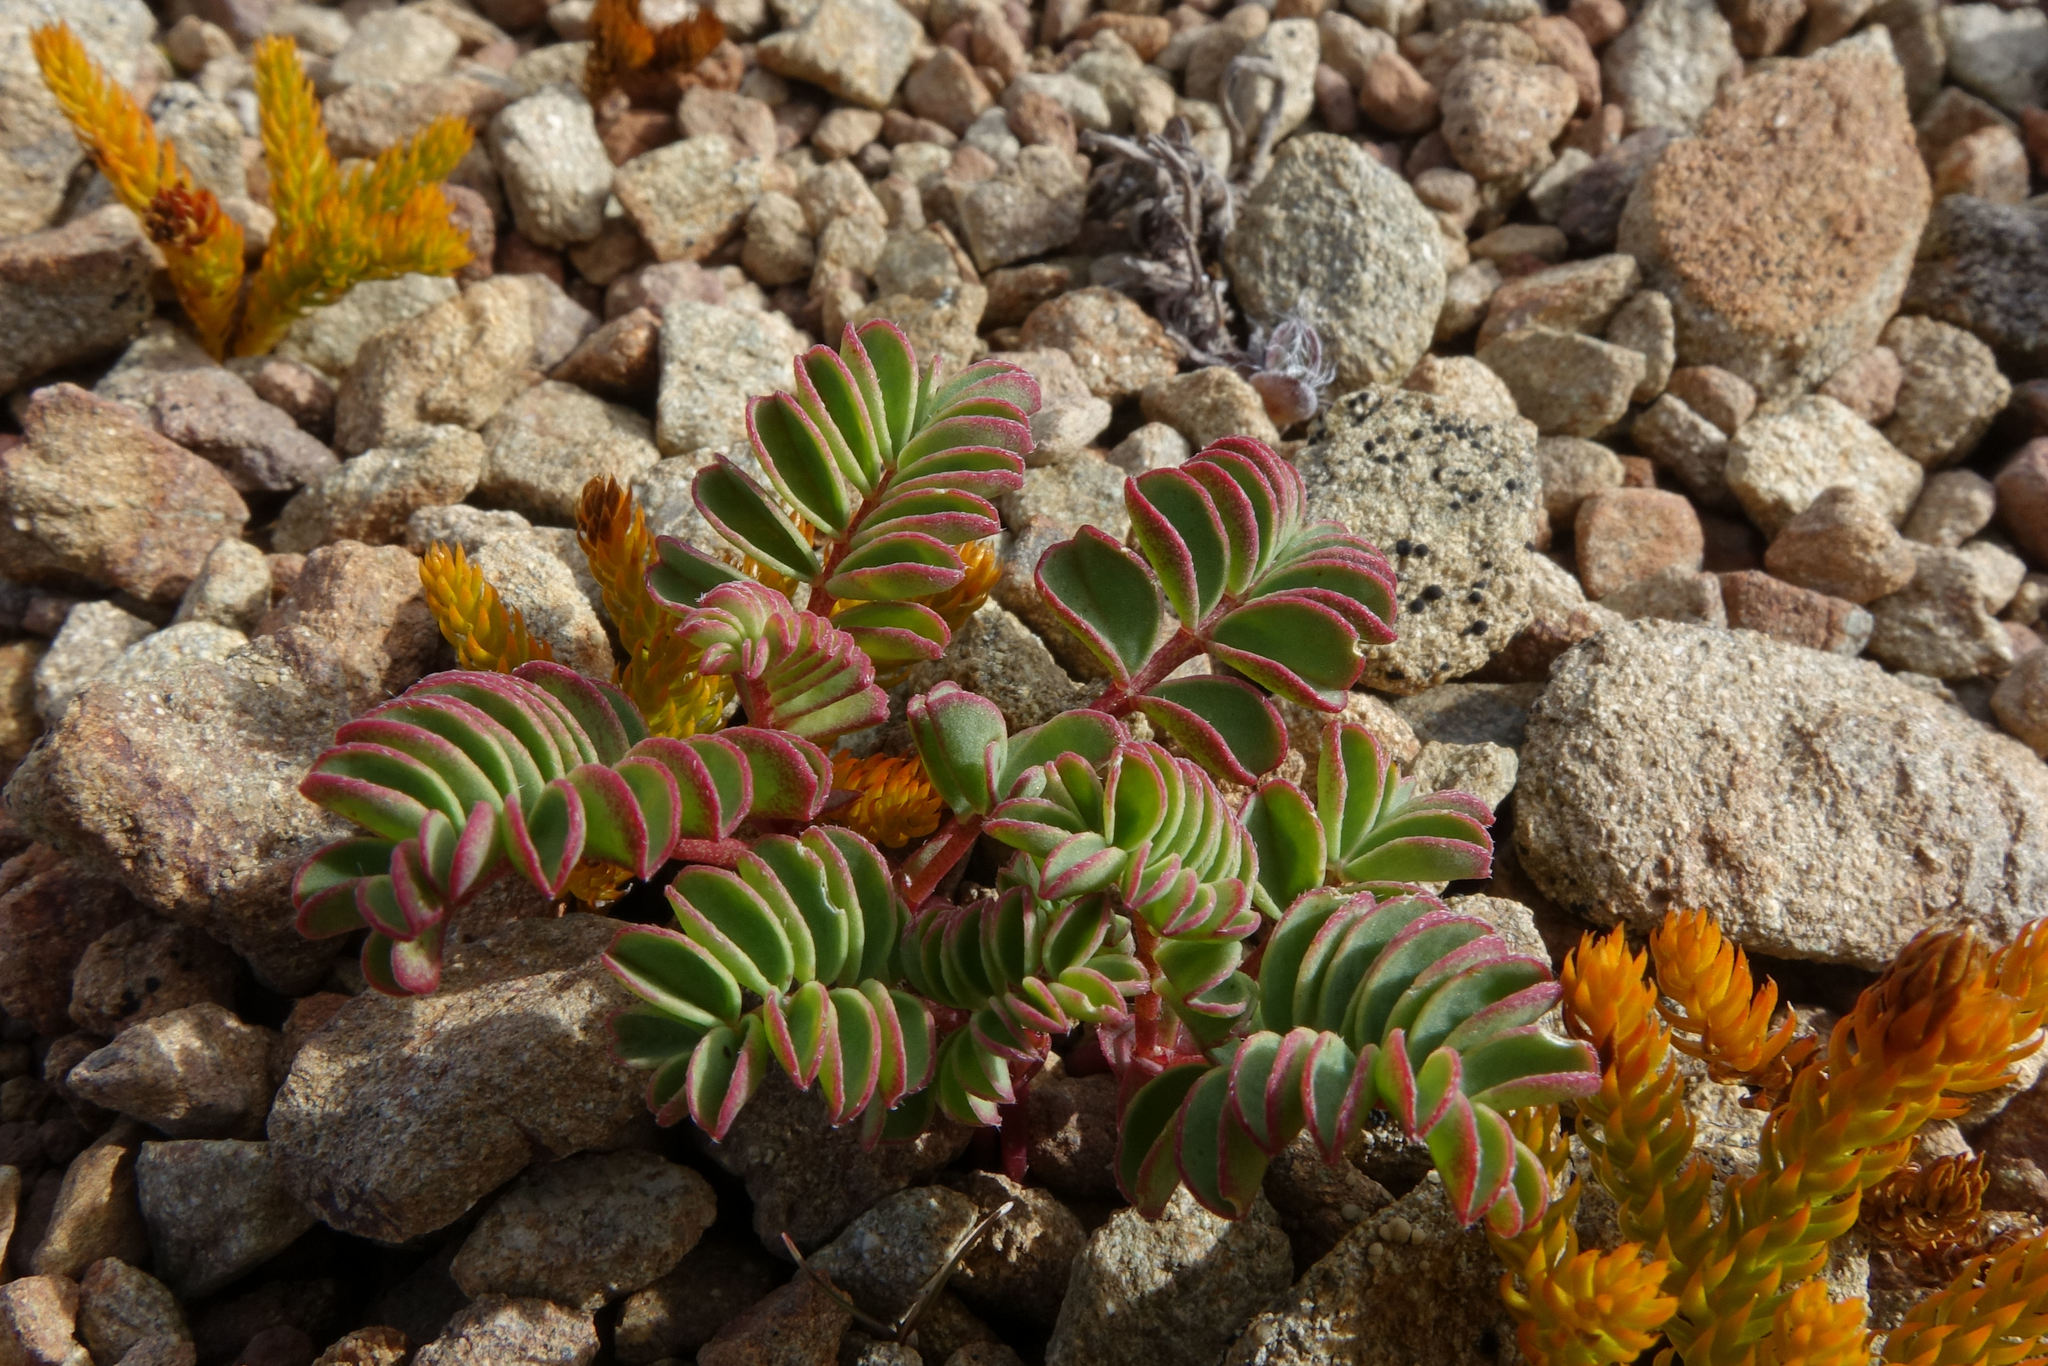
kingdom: Plantae
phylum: Tracheophyta
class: Magnoliopsida
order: Fabales
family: Fabaceae
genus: Montigena
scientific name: Montigena novae-zelandiae
